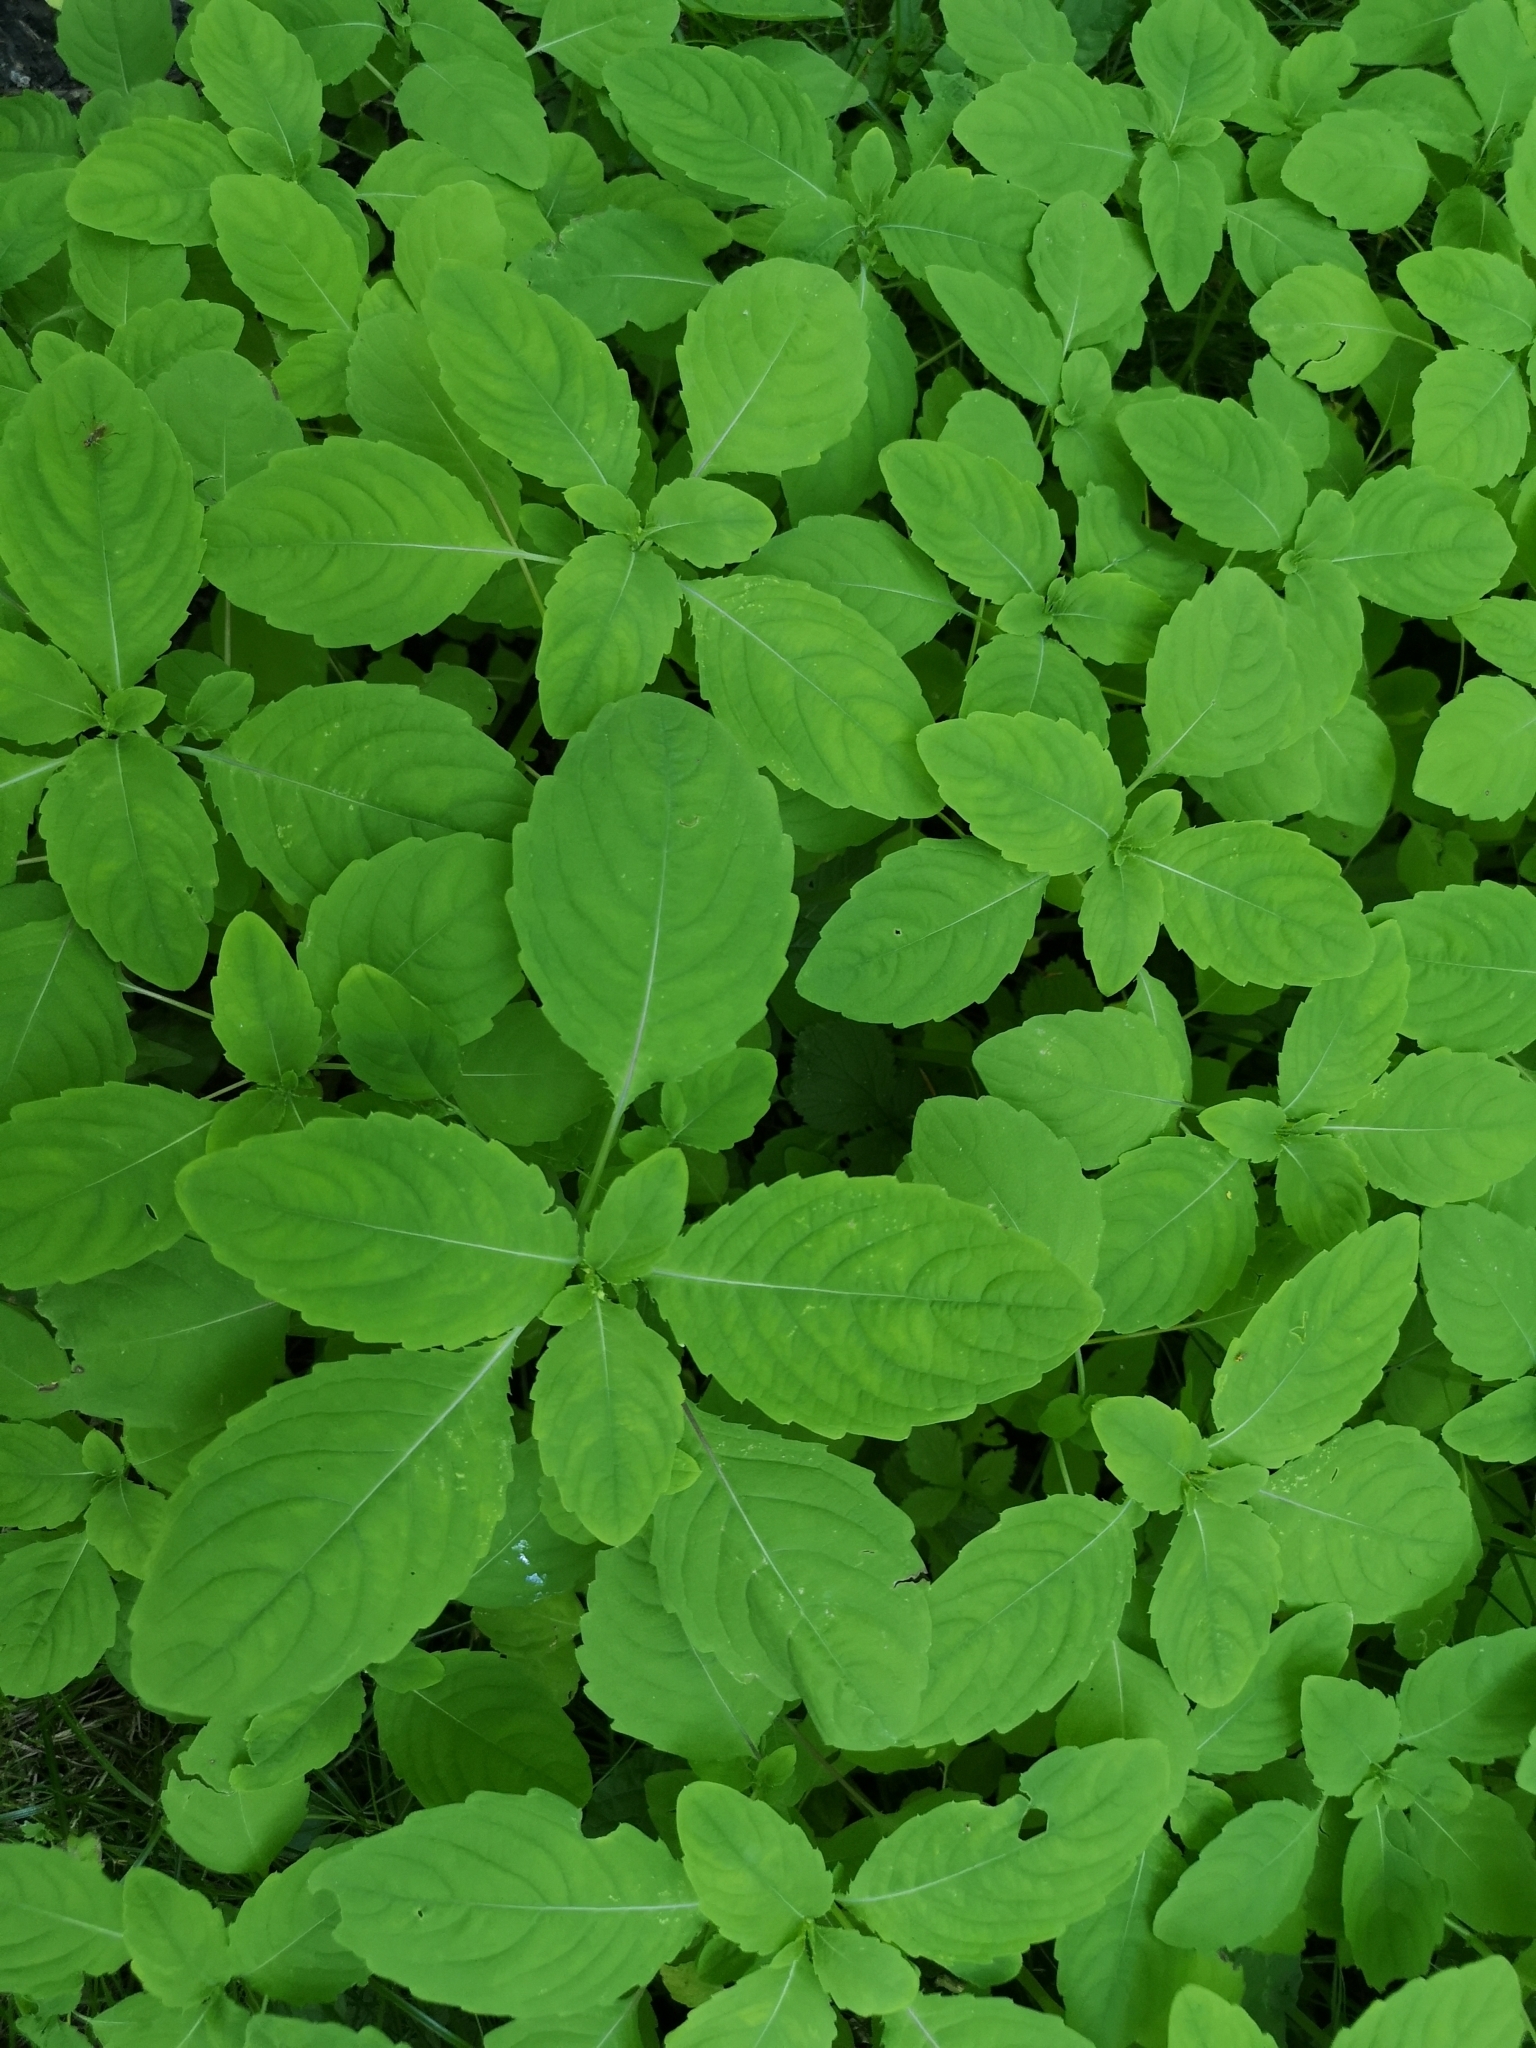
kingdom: Plantae
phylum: Tracheophyta
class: Magnoliopsida
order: Ericales
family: Balsaminaceae
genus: Impatiens
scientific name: Impatiens noli-tangere
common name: Touch-me-not balsam
